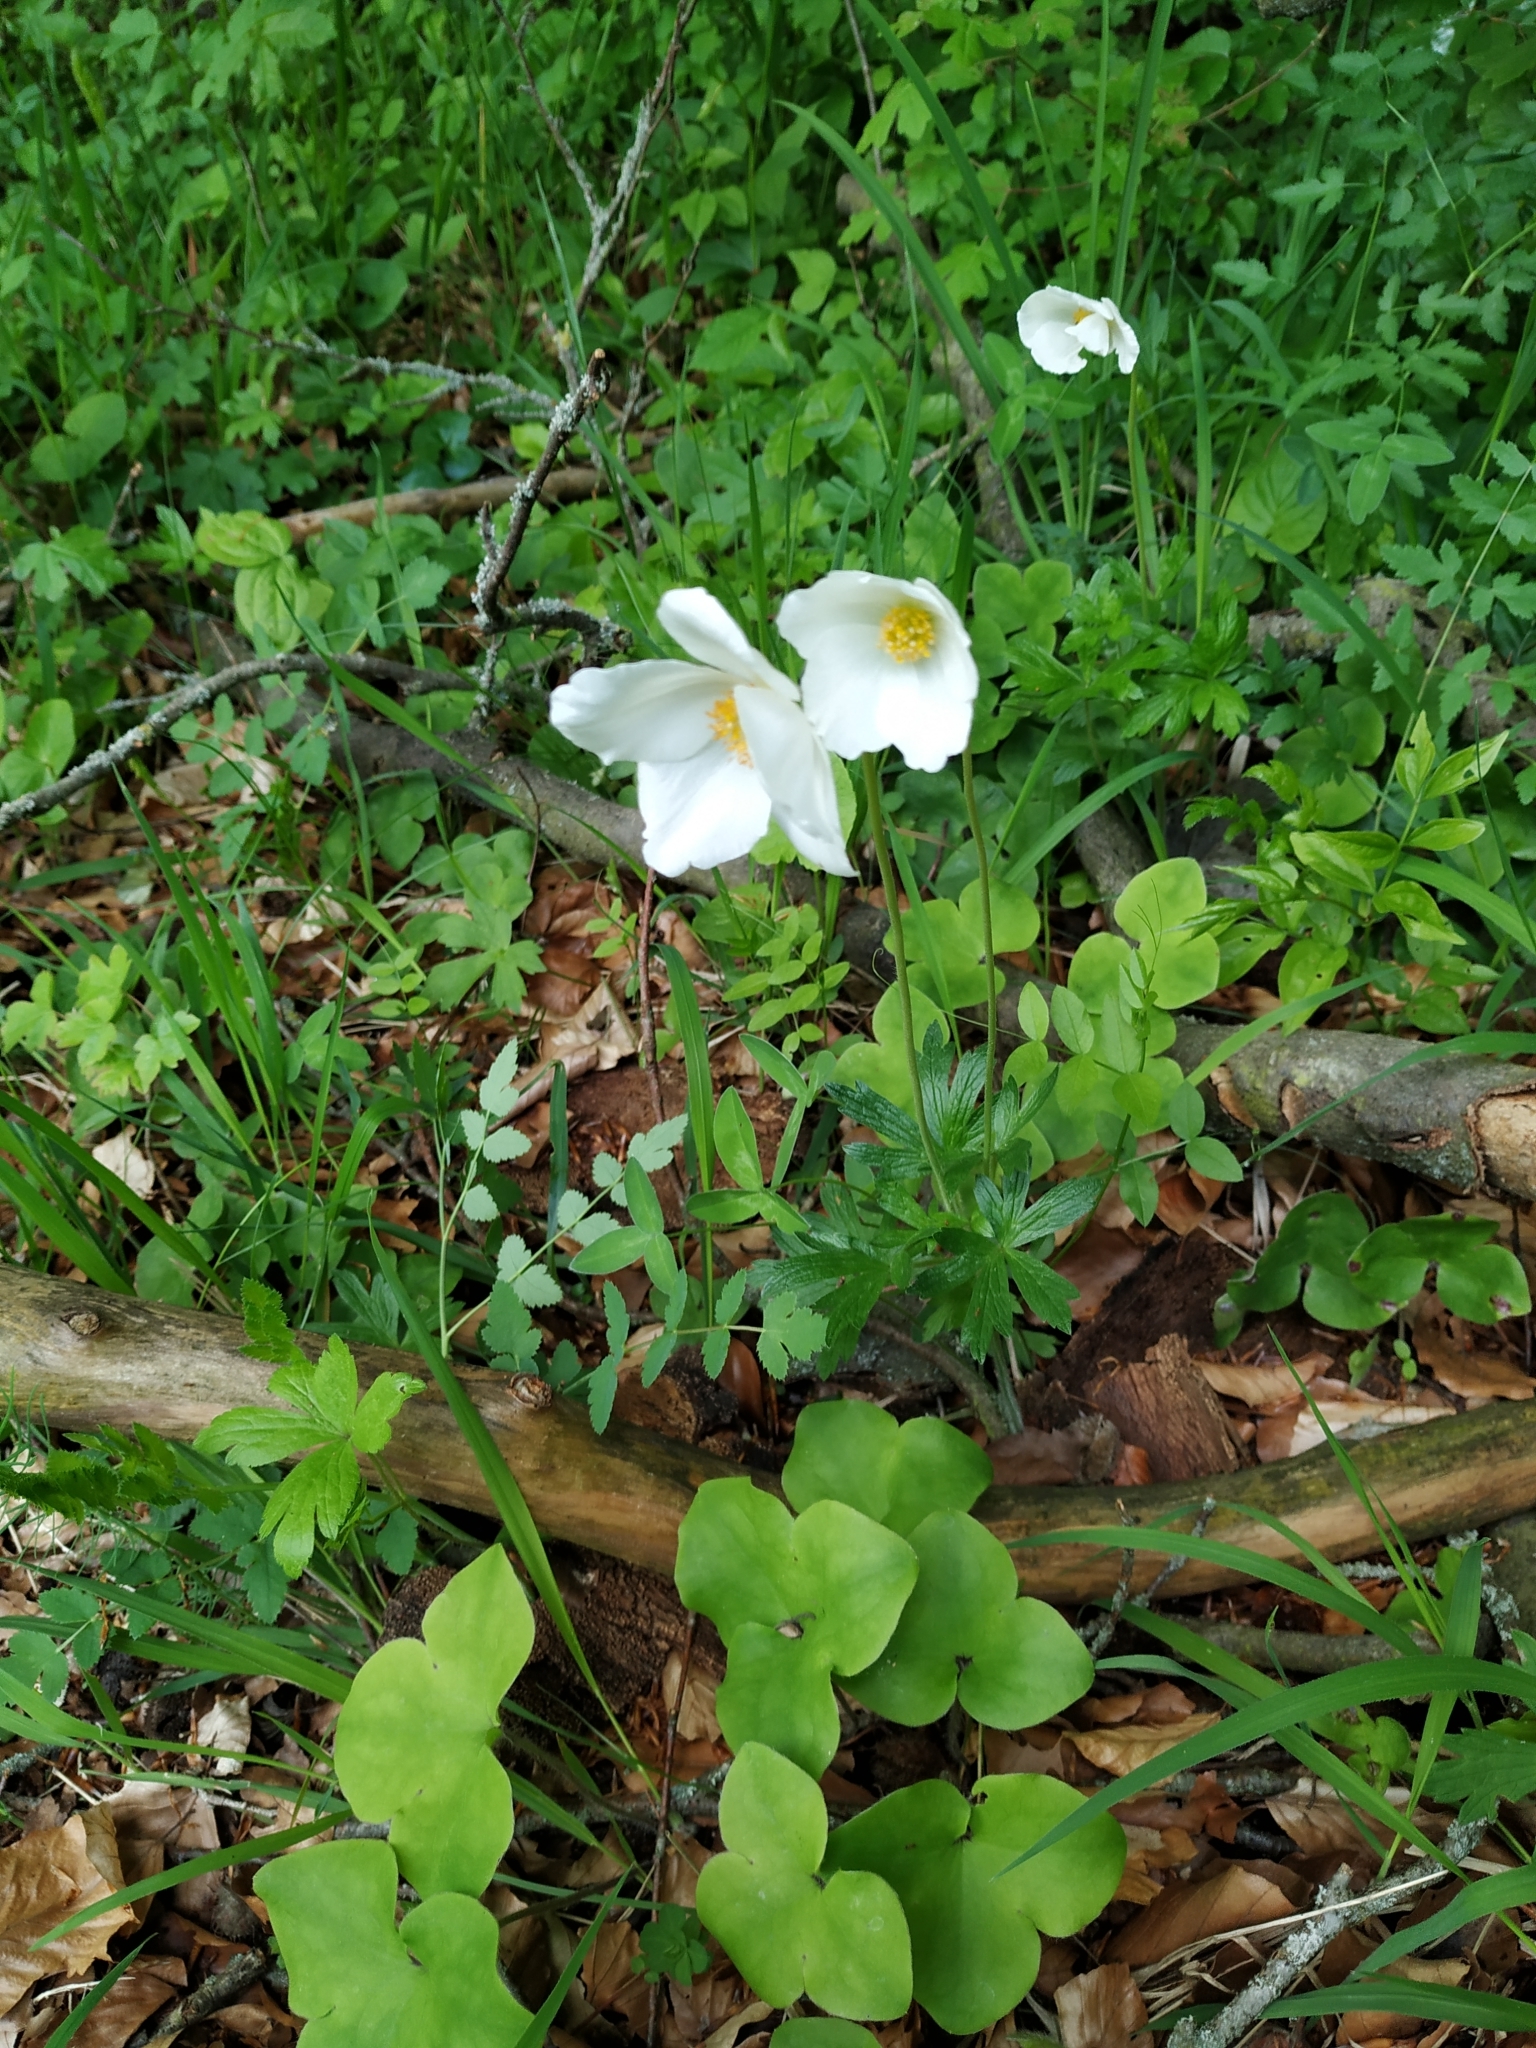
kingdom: Plantae
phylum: Tracheophyta
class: Magnoliopsida
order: Ranunculales
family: Ranunculaceae
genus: Anemone
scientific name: Anemone sylvestris
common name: Snowdrop anemone
